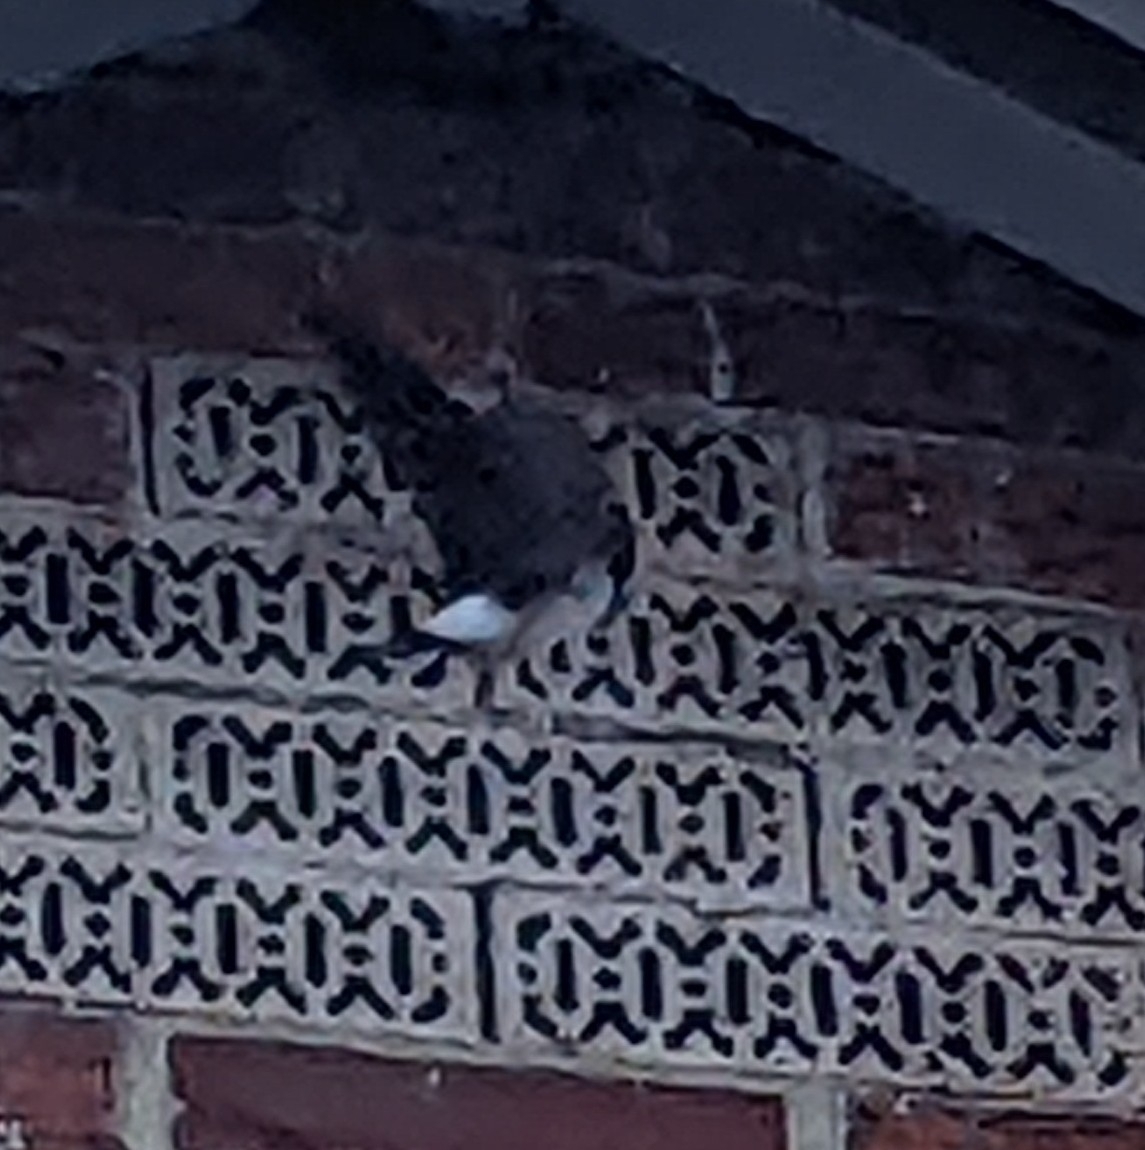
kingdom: Animalia
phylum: Chordata
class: Aves
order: Passeriformes
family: Hirundinidae
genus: Delichon
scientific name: Delichon urbicum
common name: Common house martin
